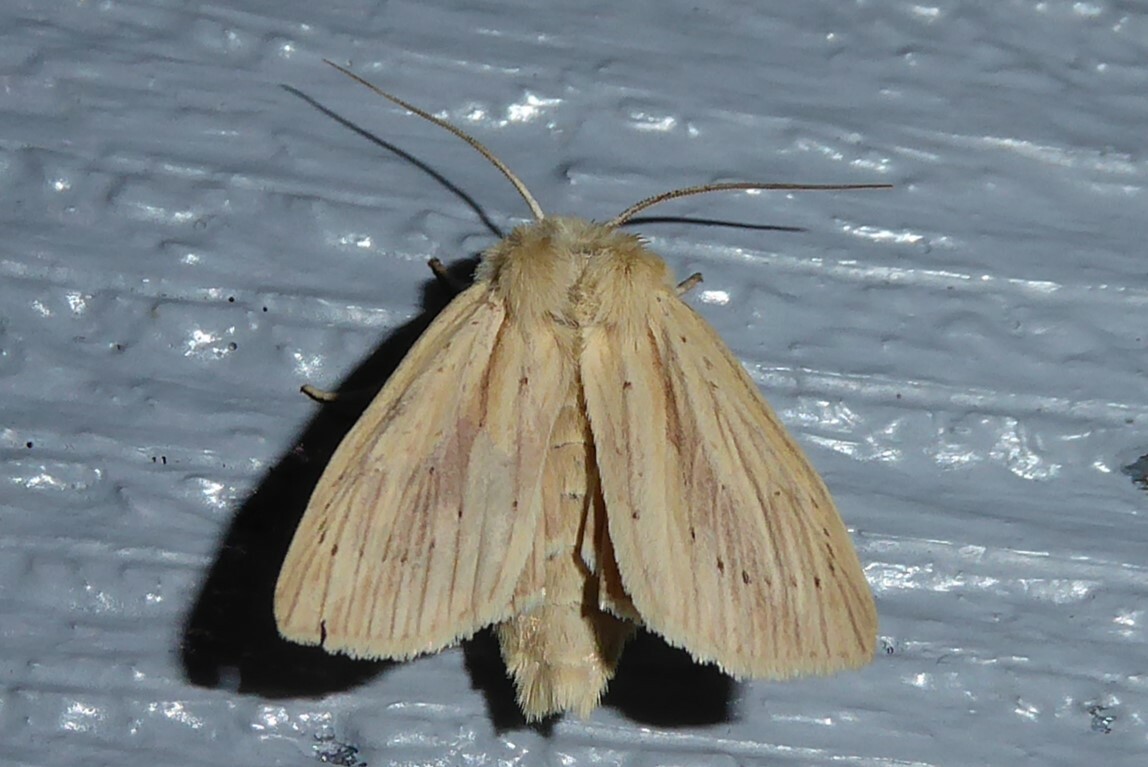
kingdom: Animalia
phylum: Arthropoda
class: Insecta
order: Lepidoptera
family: Noctuidae
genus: Ichneutica
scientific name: Ichneutica semivittata
